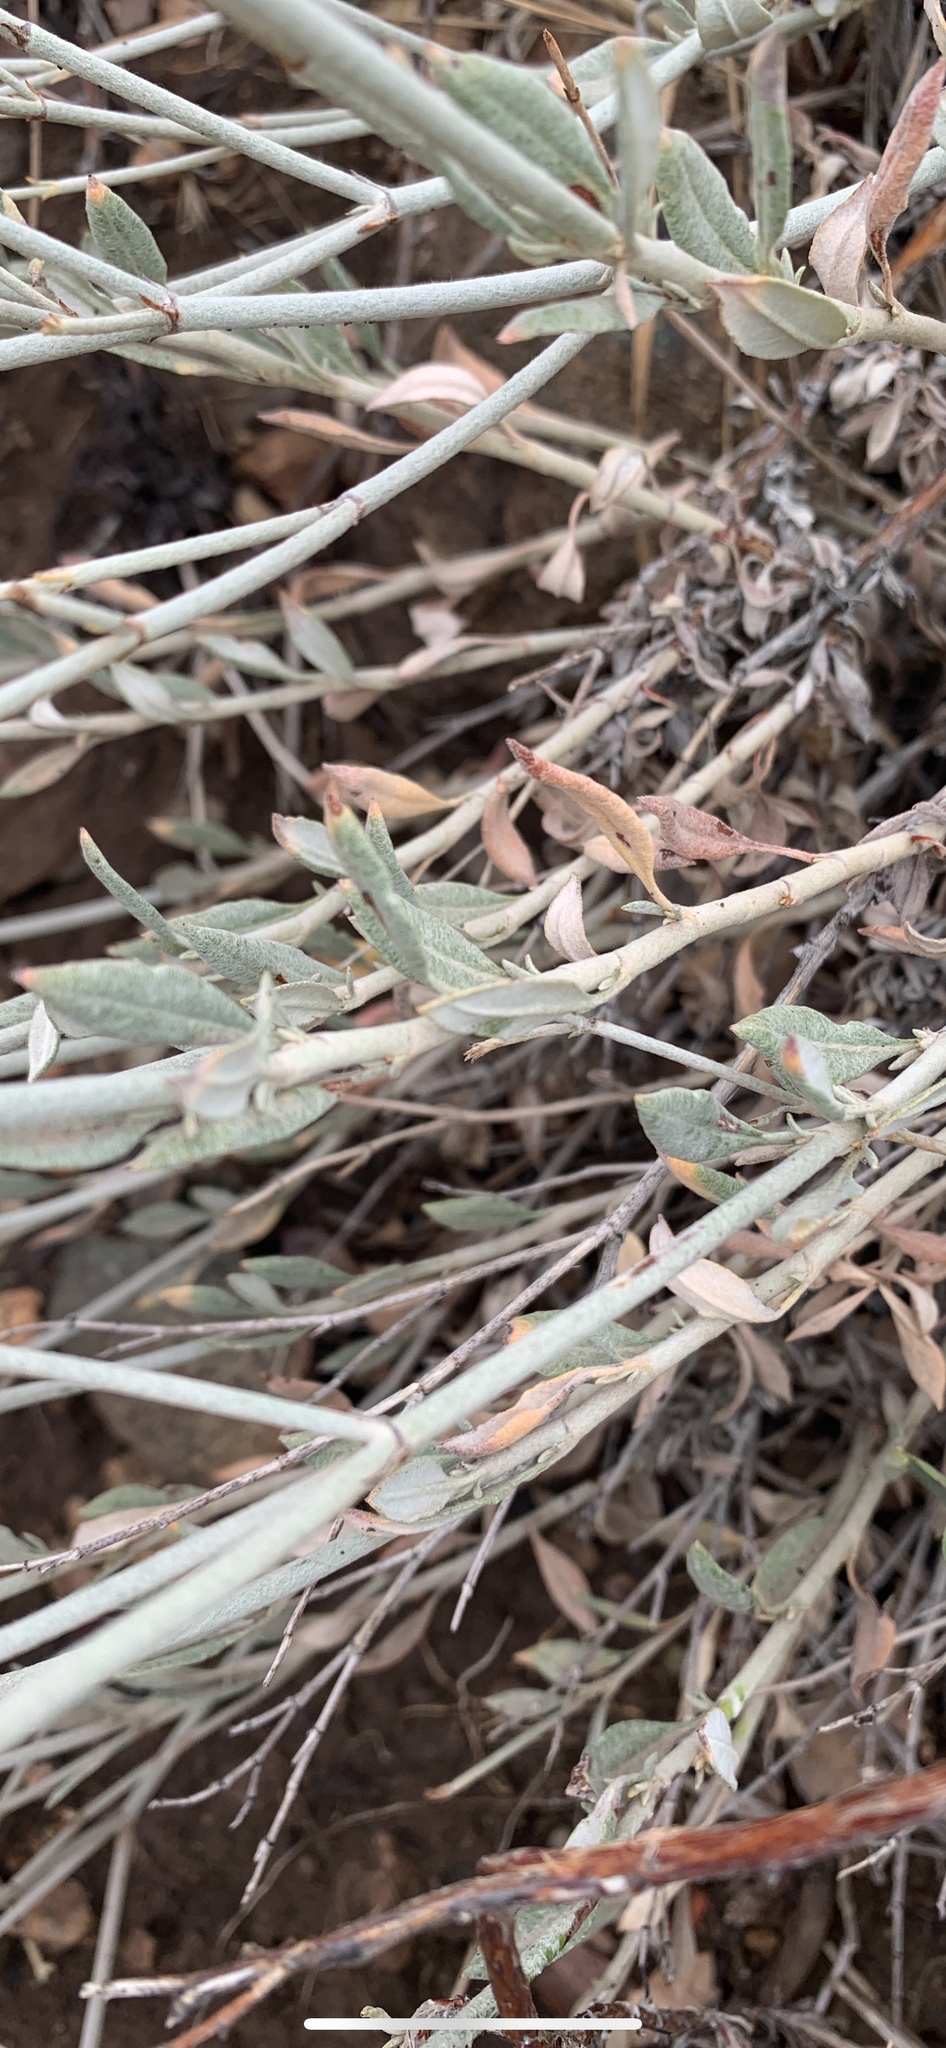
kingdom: Plantae
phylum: Tracheophyta
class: Magnoliopsida
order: Caryophyllales
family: Polygonaceae
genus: Eriogonum
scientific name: Eriogonum wrightii
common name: Bastard-sage
